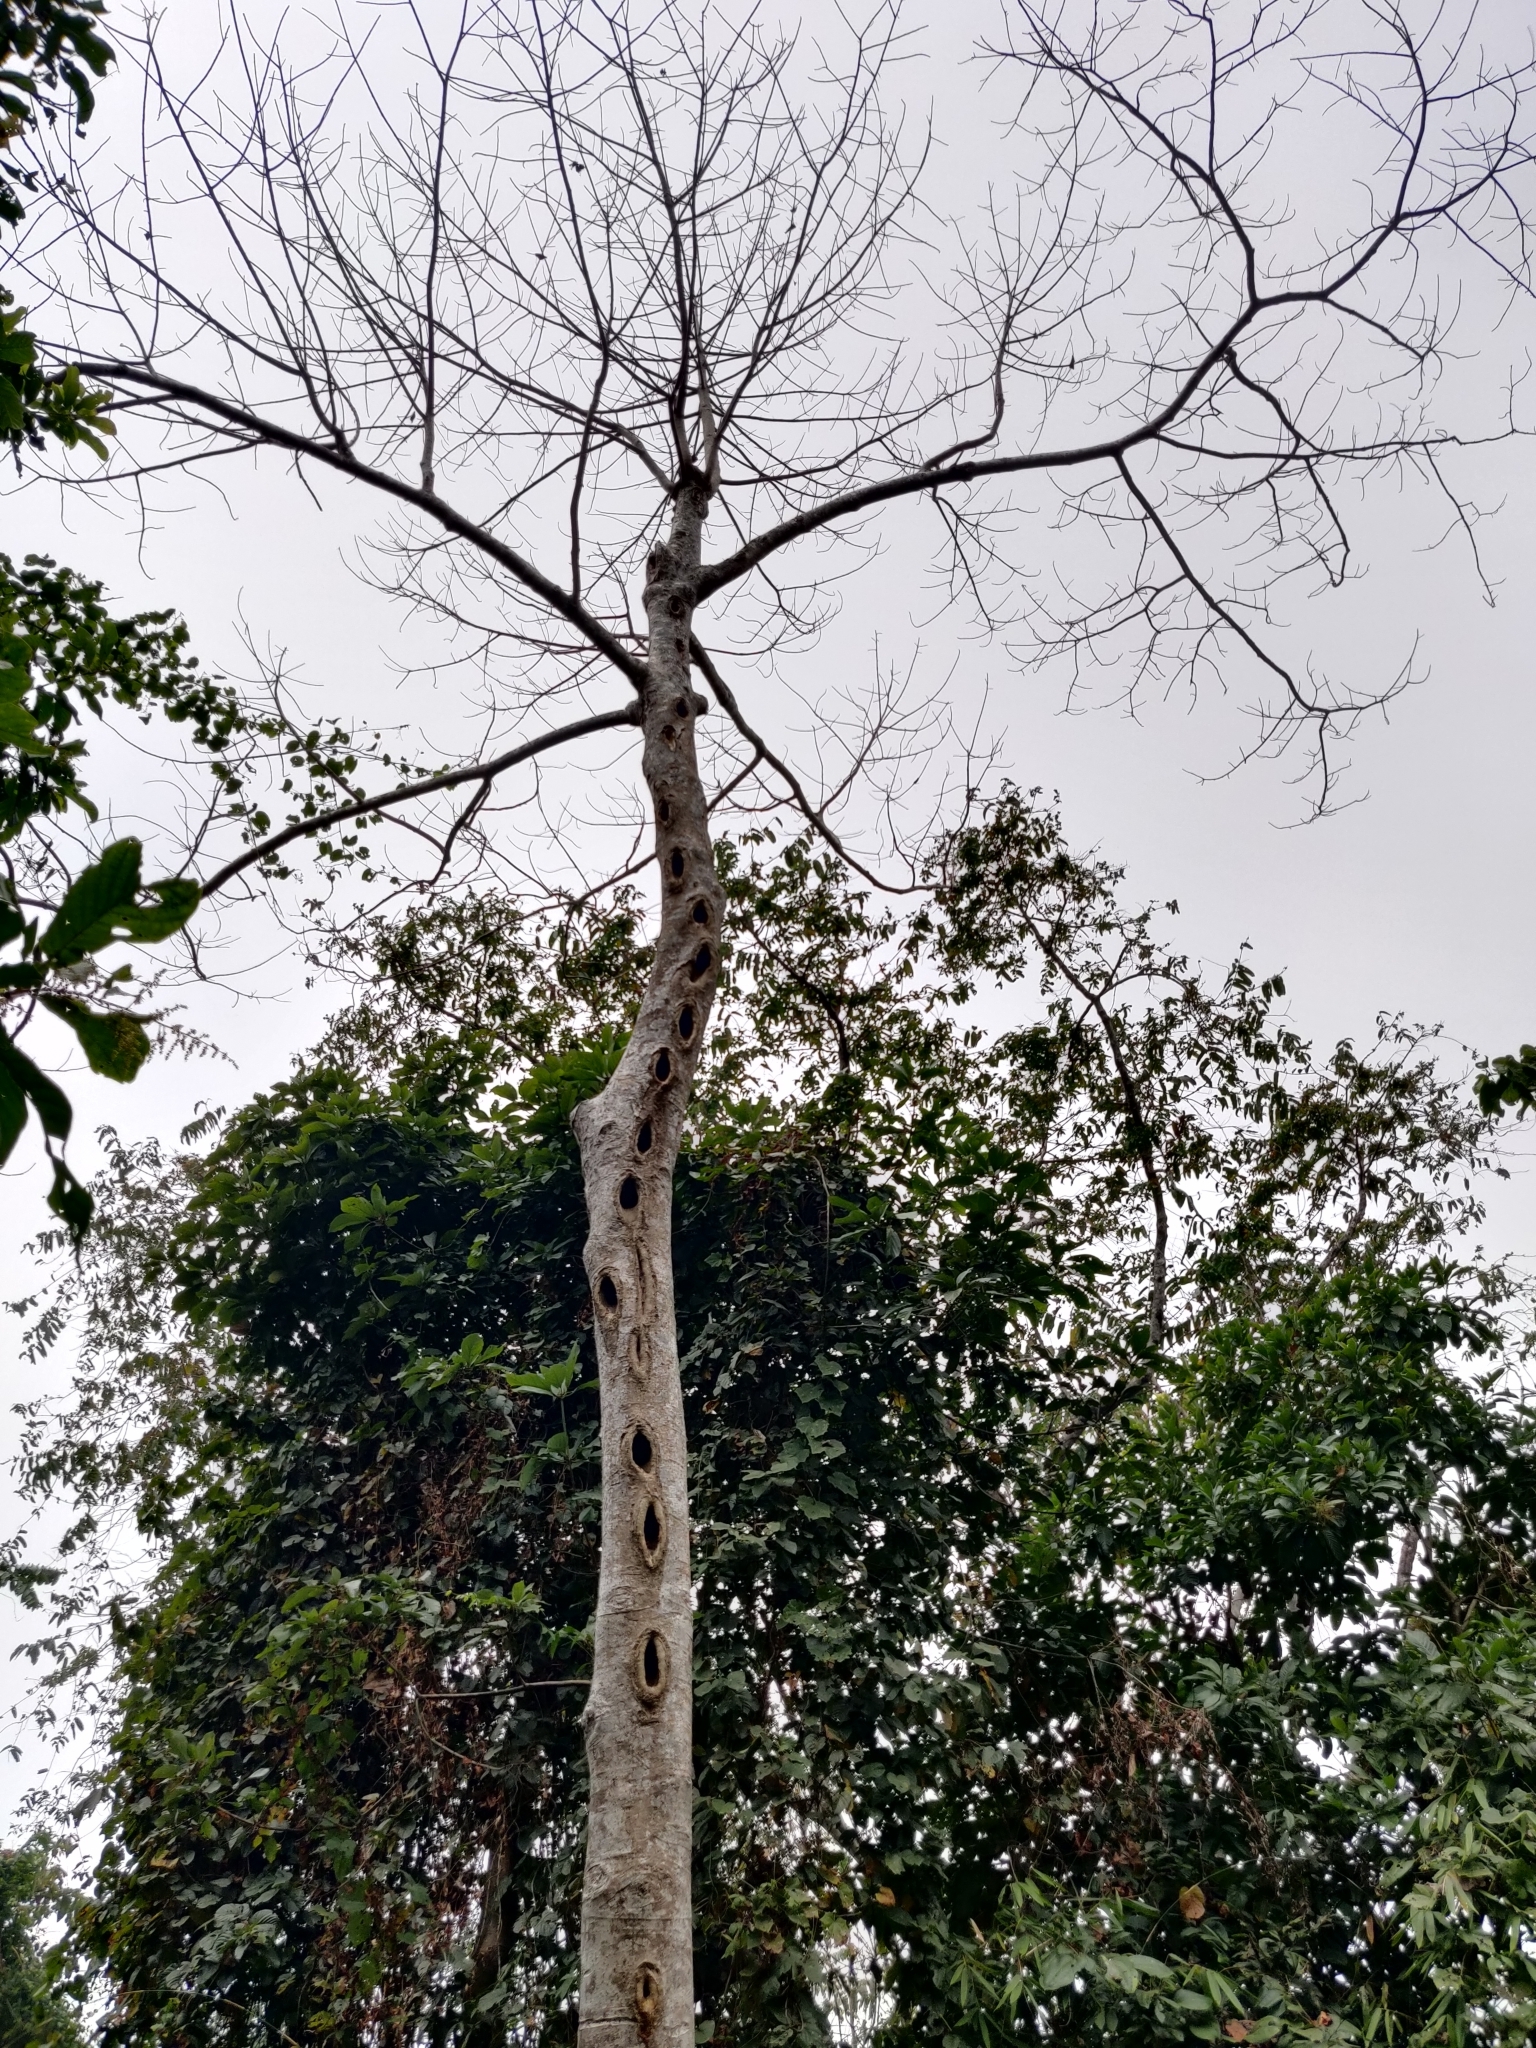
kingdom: Plantae
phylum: Tracheophyta
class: Magnoliopsida
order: Cucurbitales
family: Tetramelaceae
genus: Tetrameles
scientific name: Tetrameles nudiflora
